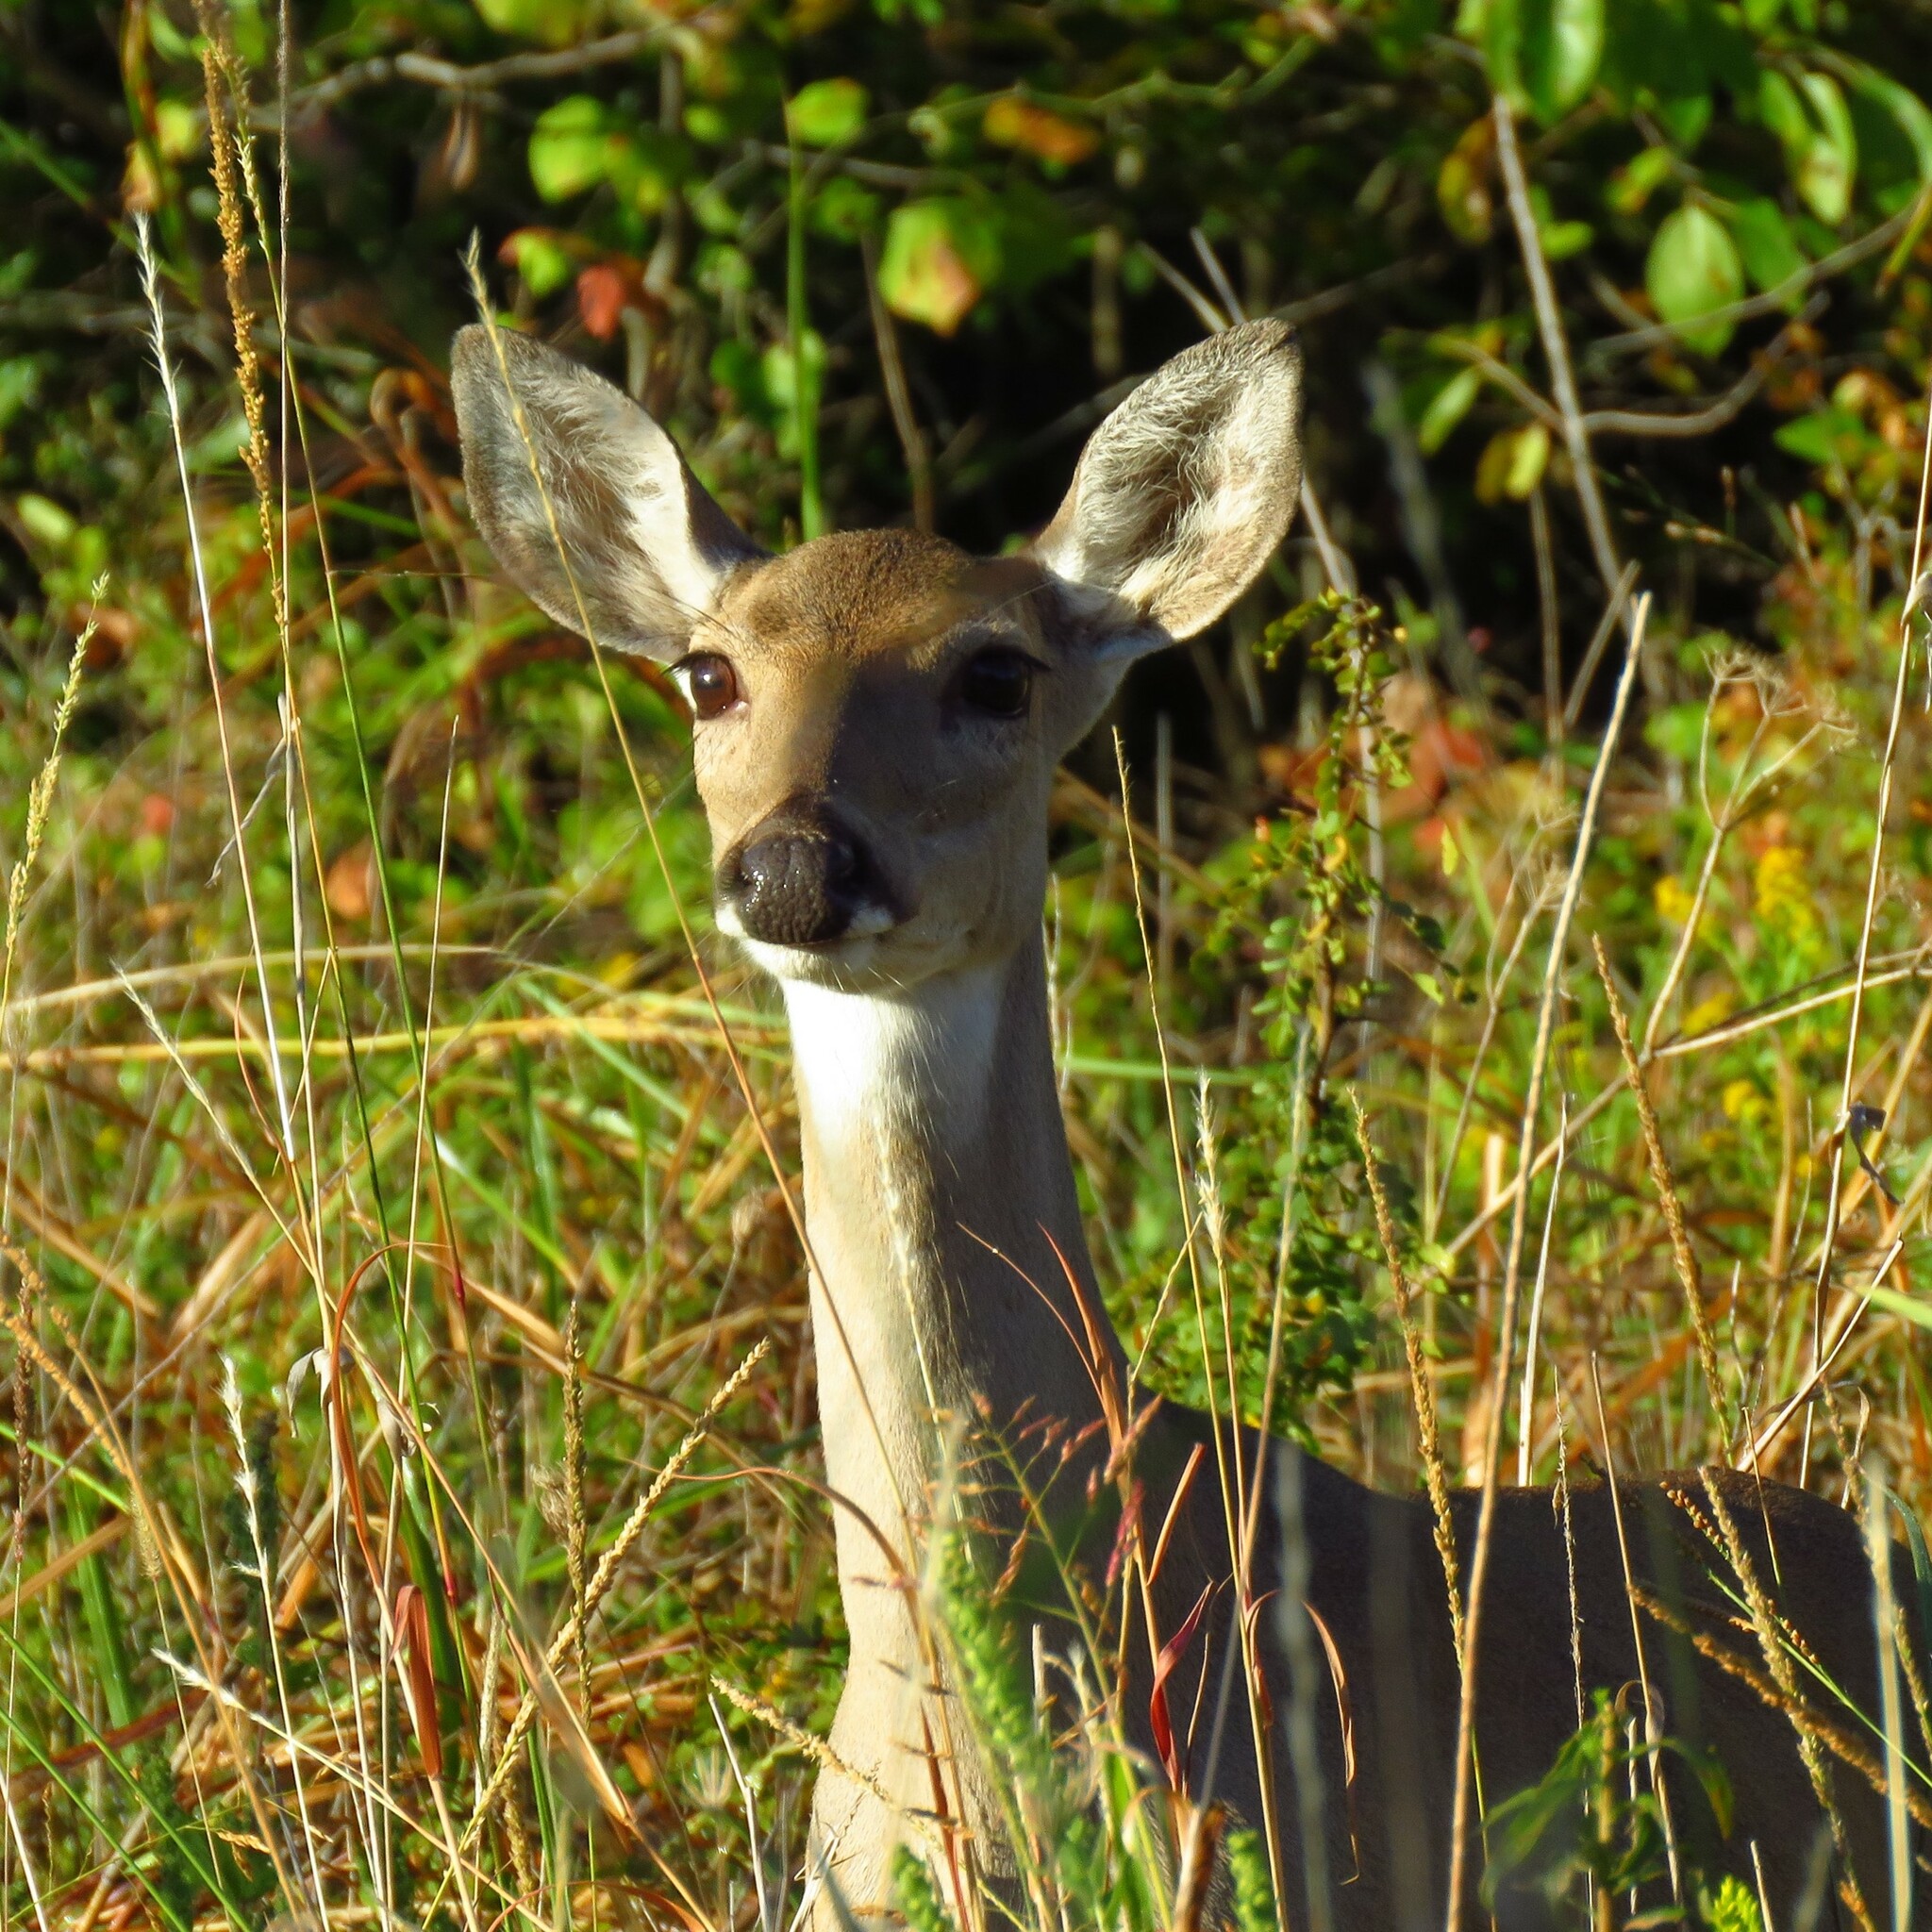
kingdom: Animalia
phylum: Chordata
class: Mammalia
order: Artiodactyla
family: Cervidae
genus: Odocoileus
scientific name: Odocoileus virginianus
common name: White-tailed deer
